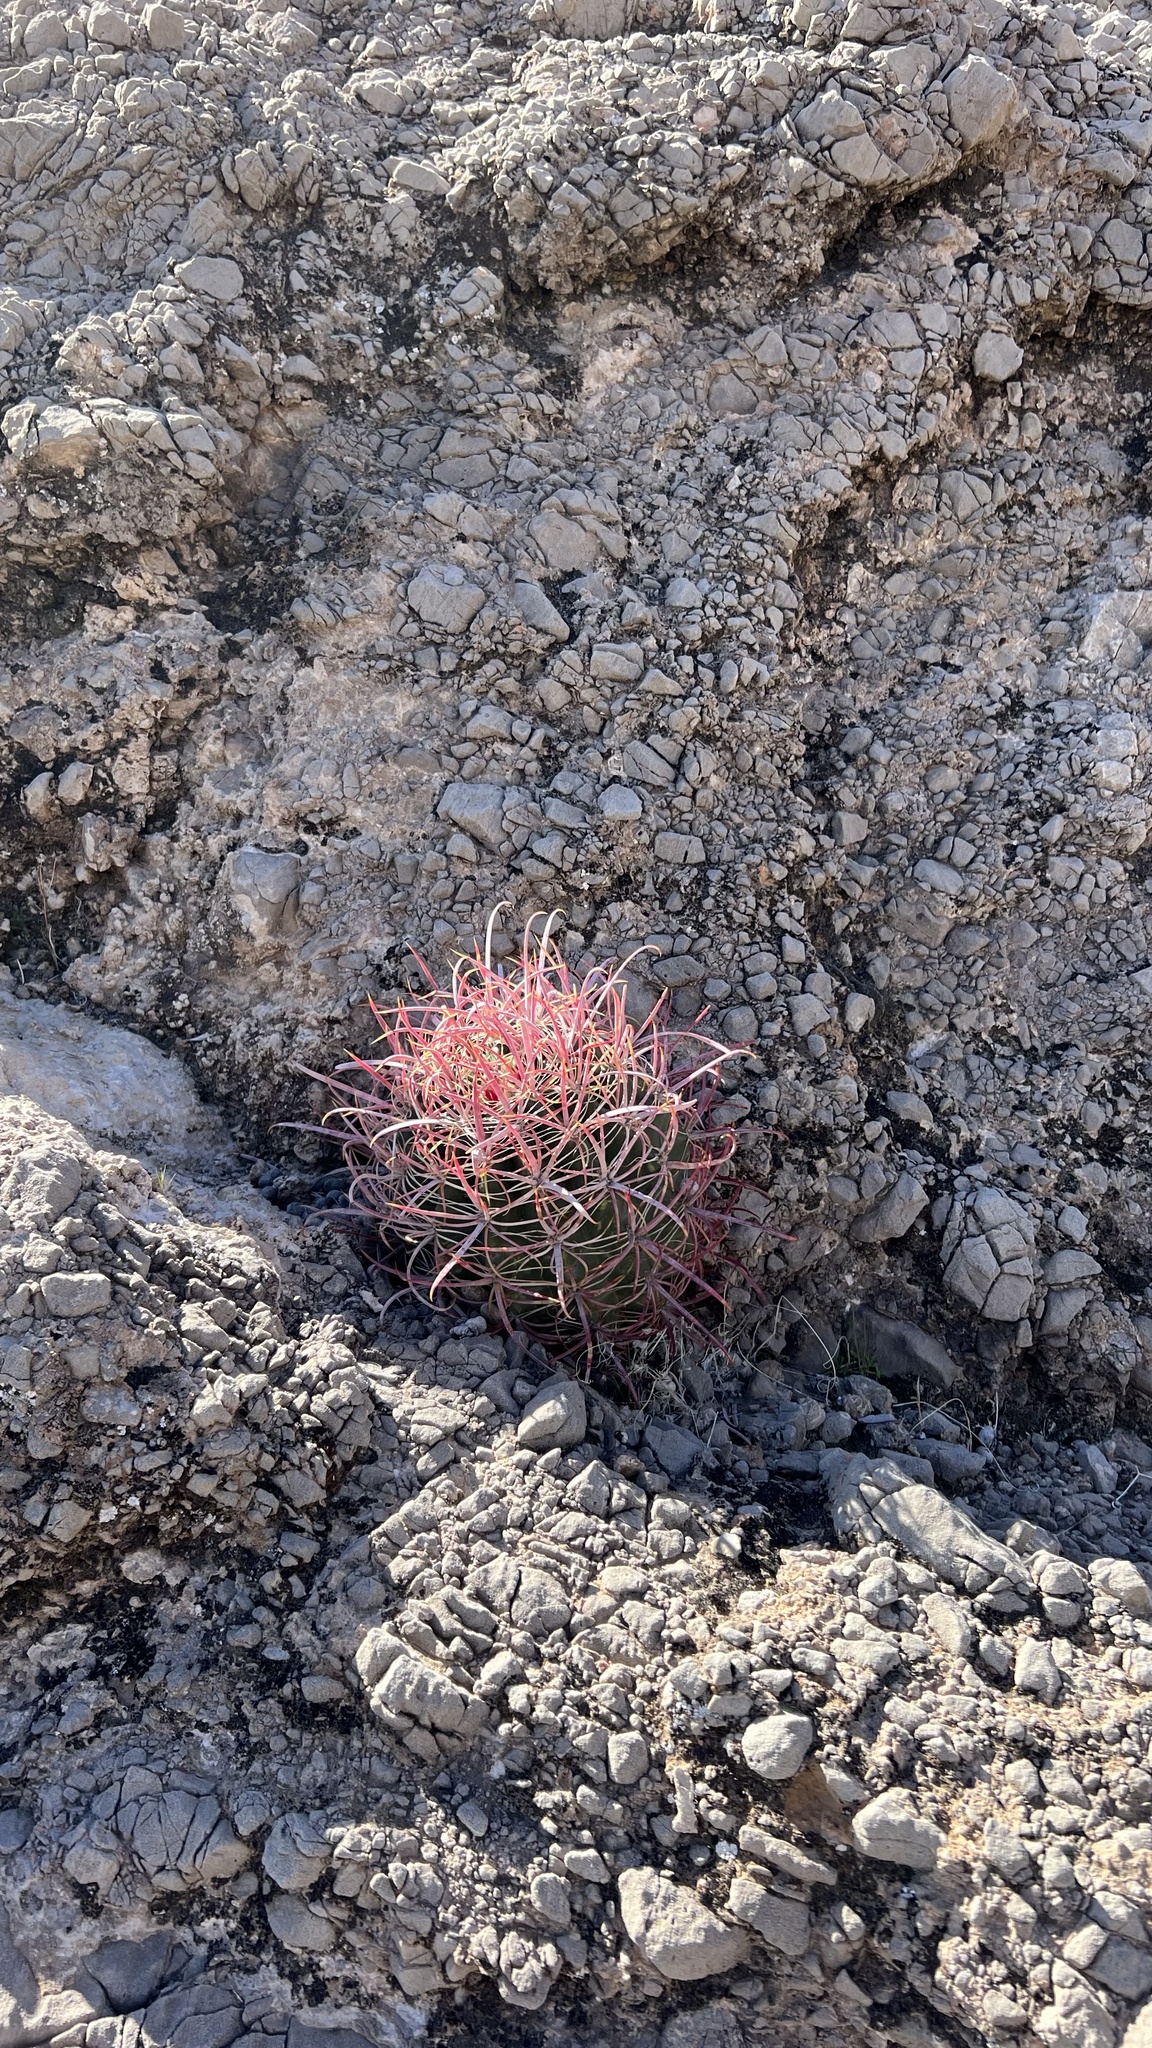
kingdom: Plantae
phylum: Tracheophyta
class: Magnoliopsida
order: Caryophyllales
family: Cactaceae
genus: Ferocactus
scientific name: Ferocactus cylindraceus
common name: California barrel cactus
